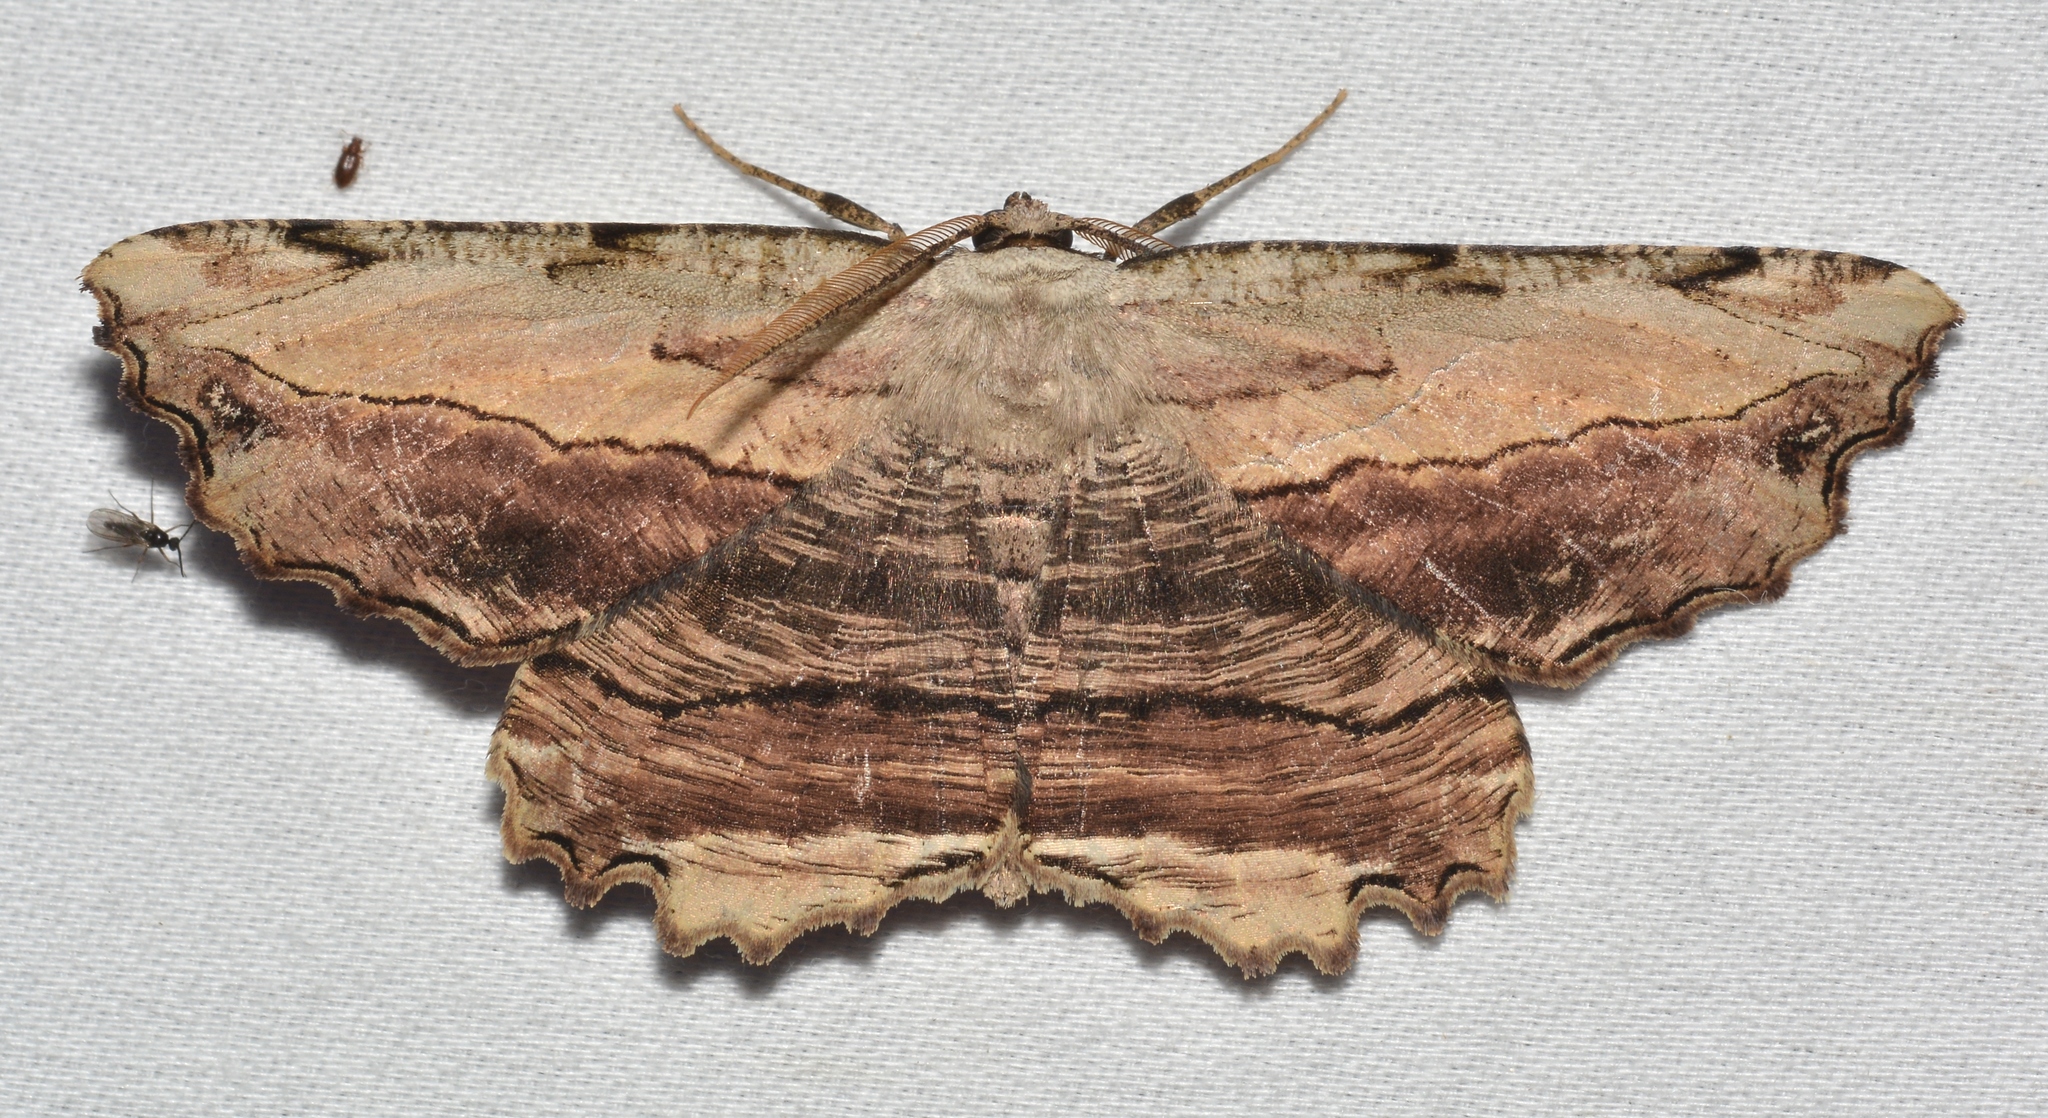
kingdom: Animalia
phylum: Arthropoda
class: Insecta
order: Lepidoptera
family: Geometridae
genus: Lytrosis
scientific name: Lytrosis unitaria
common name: Common lytrosis
